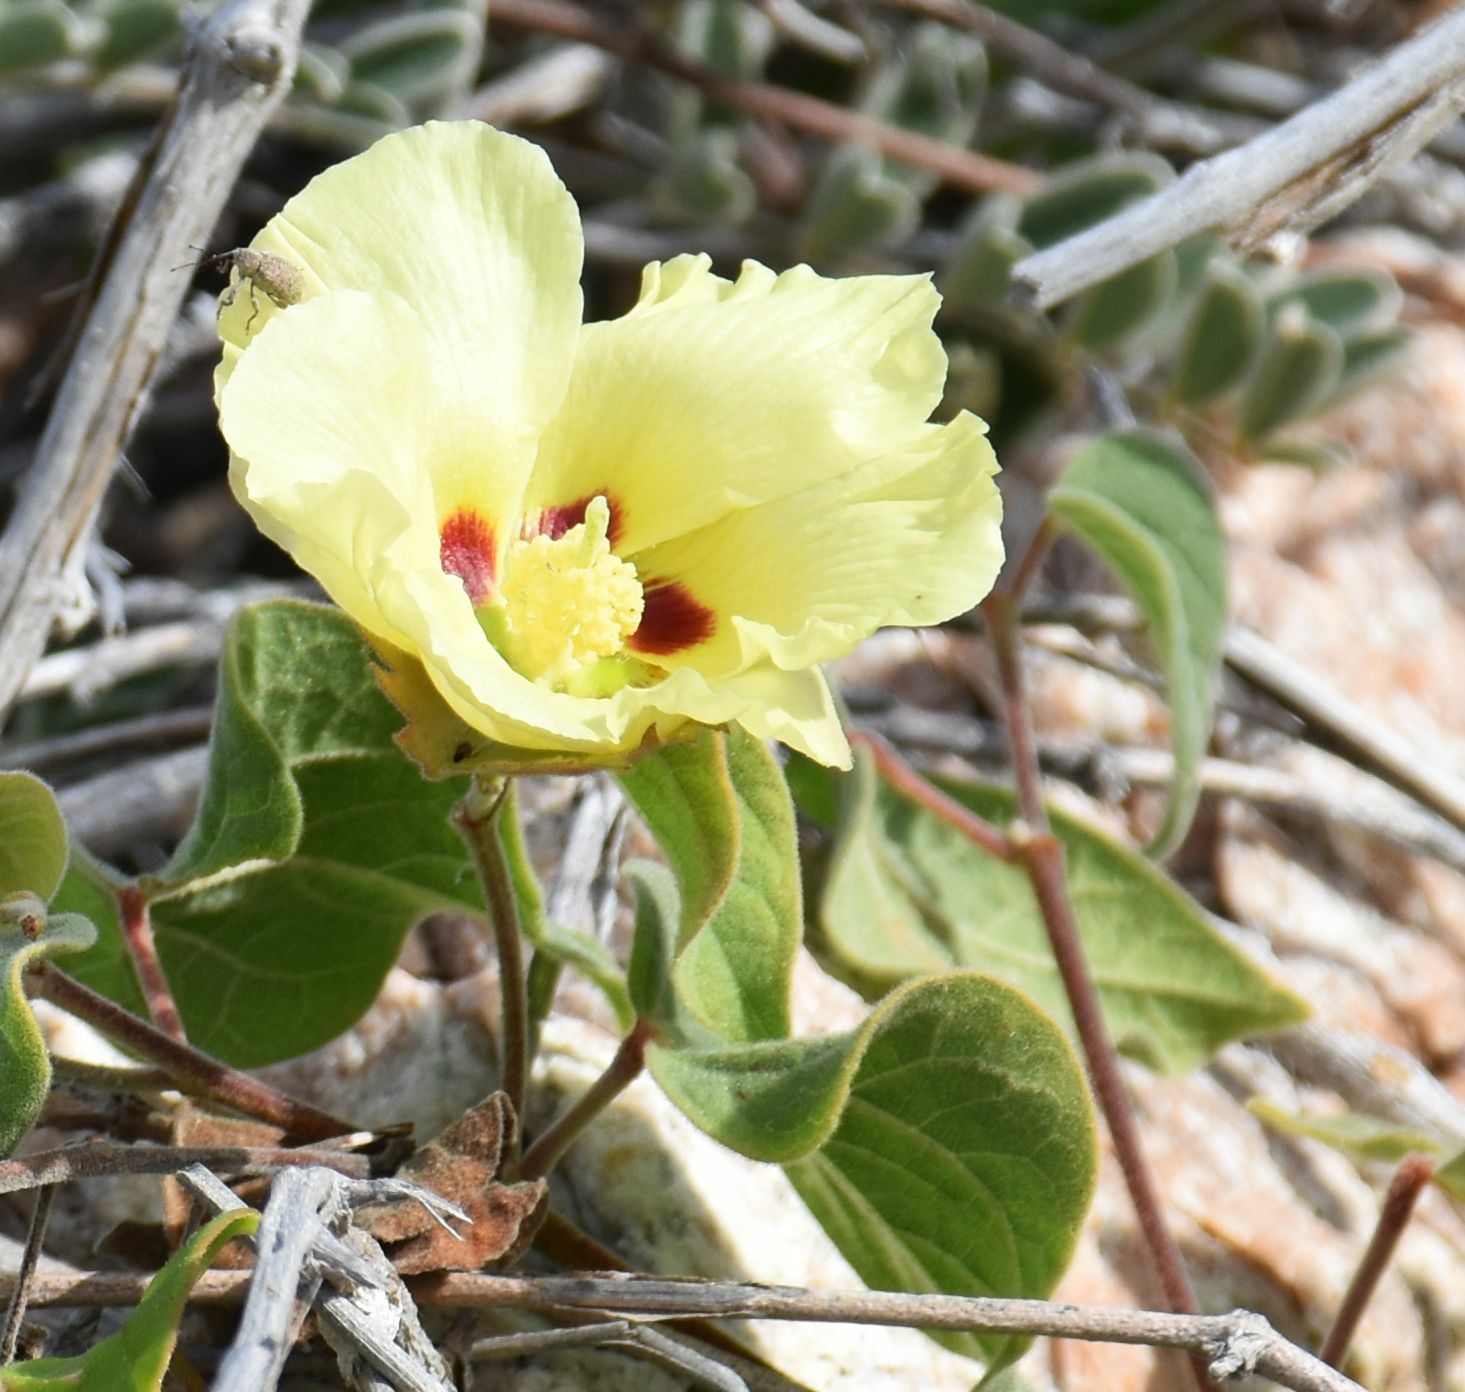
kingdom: Plantae
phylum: Tracheophyta
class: Magnoliopsida
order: Malvales
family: Malvaceae
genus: Gossypium
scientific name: Gossypium klotzschianum
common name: Galapagos cotton
